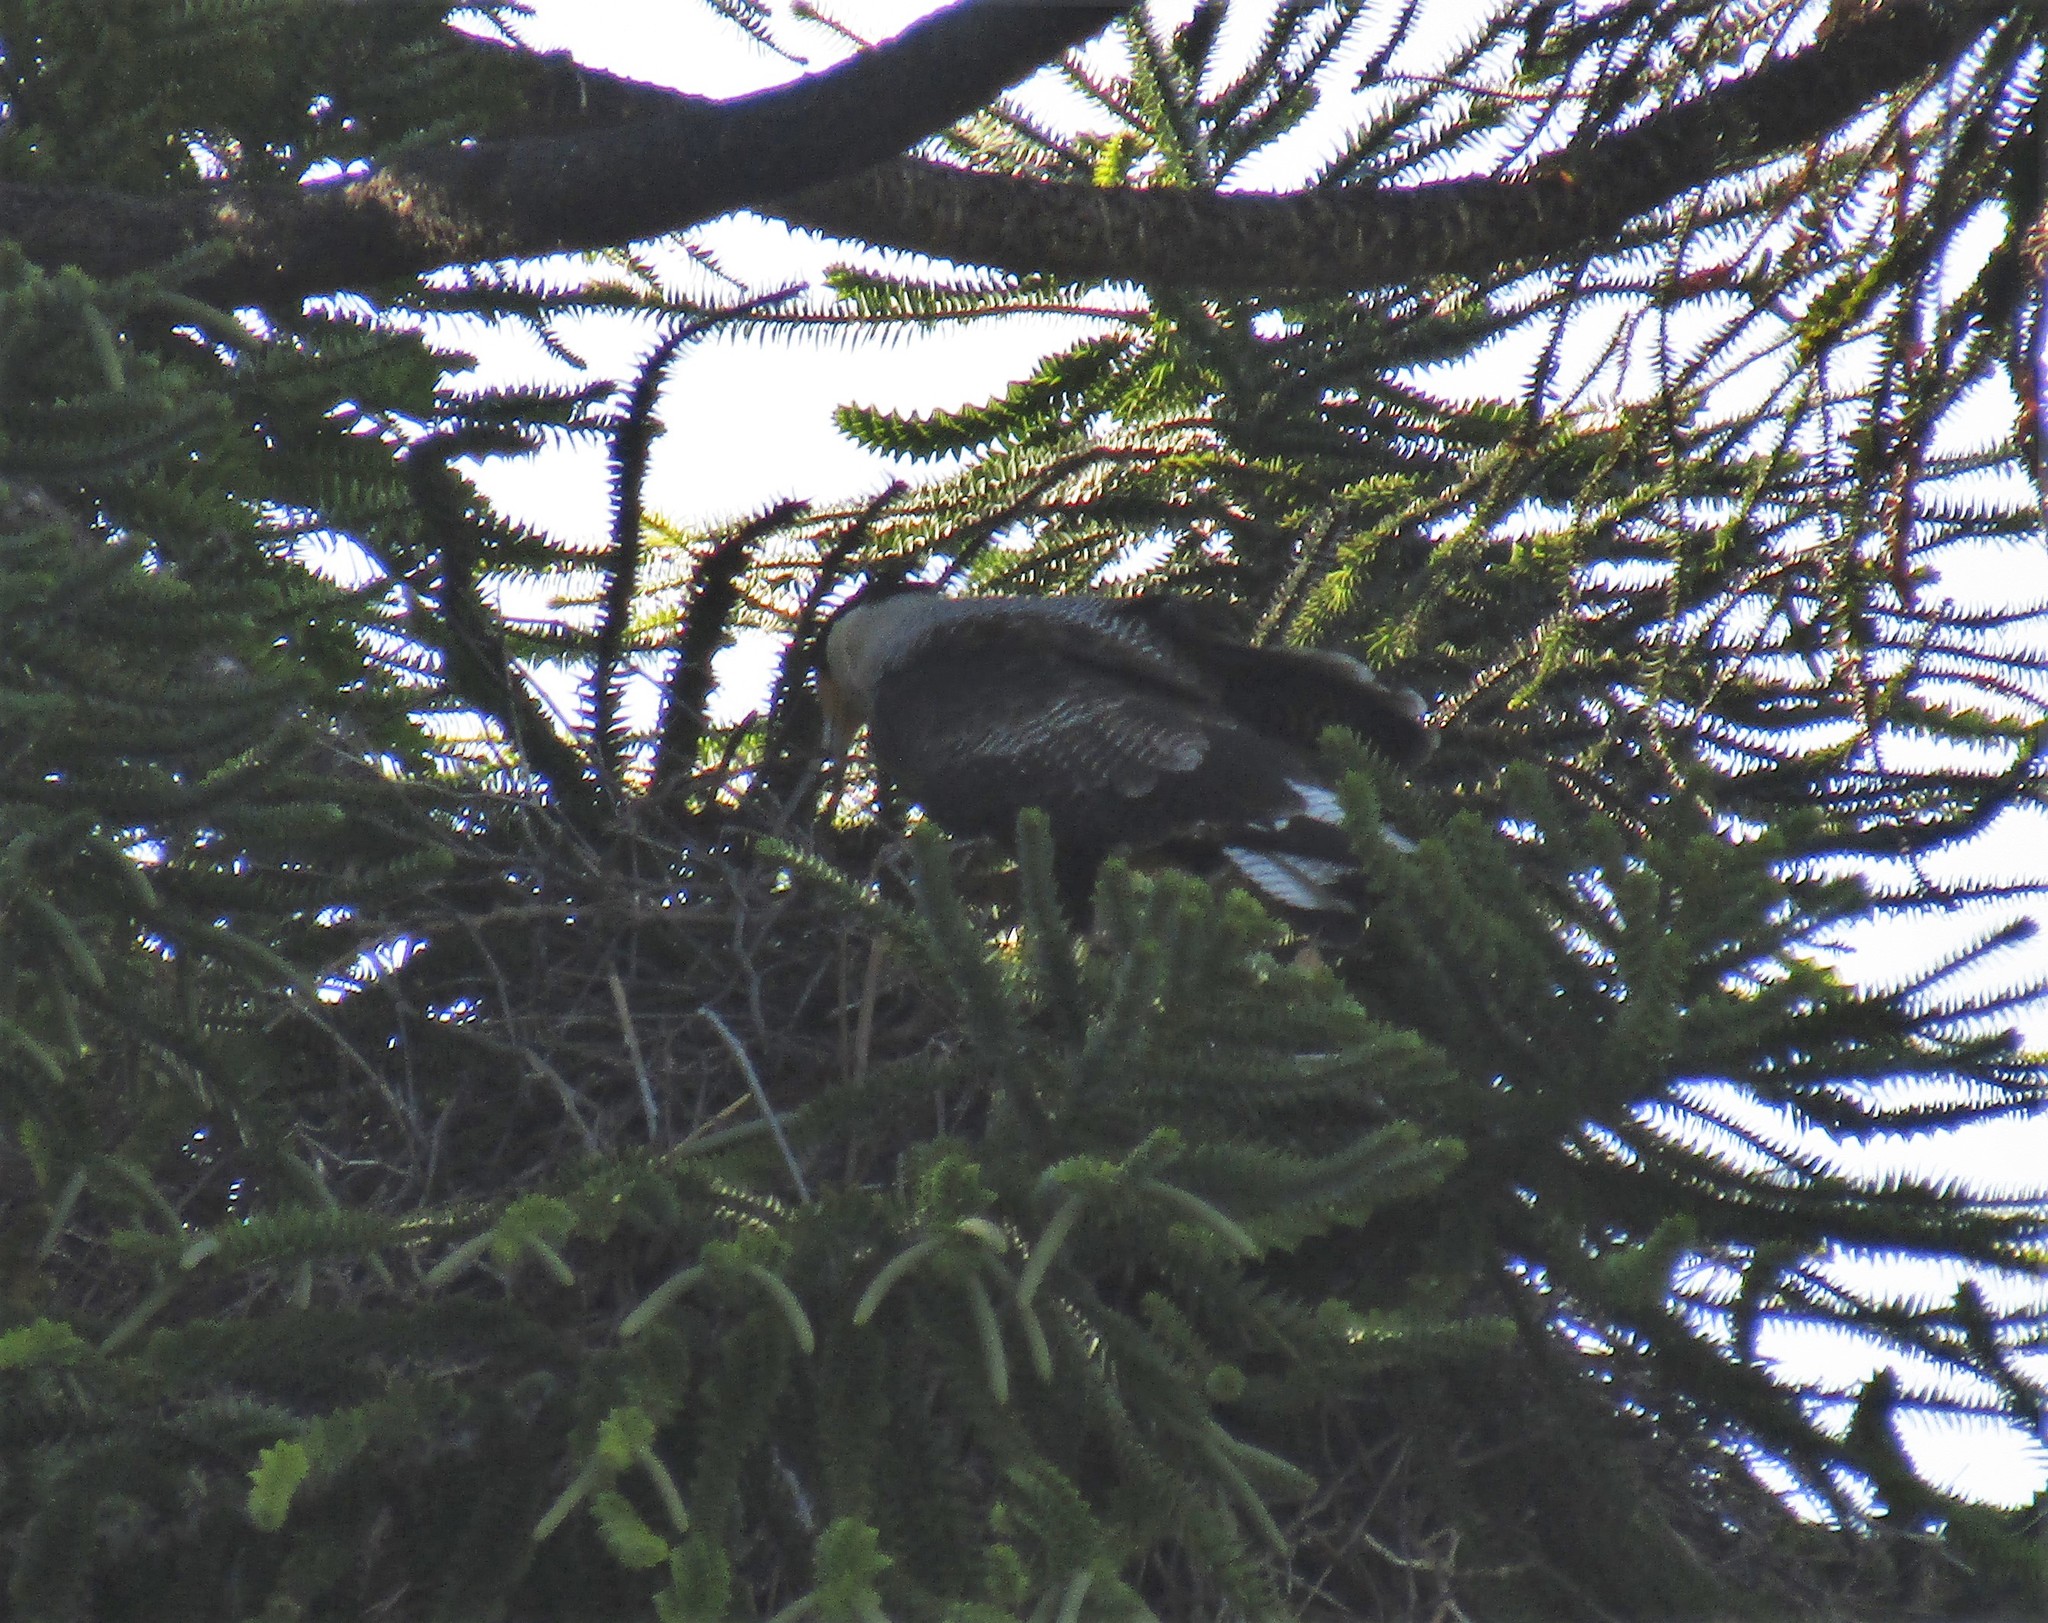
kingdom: Animalia
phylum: Chordata
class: Aves
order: Falconiformes
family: Falconidae
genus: Caracara
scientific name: Caracara plancus
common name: Southern caracara
